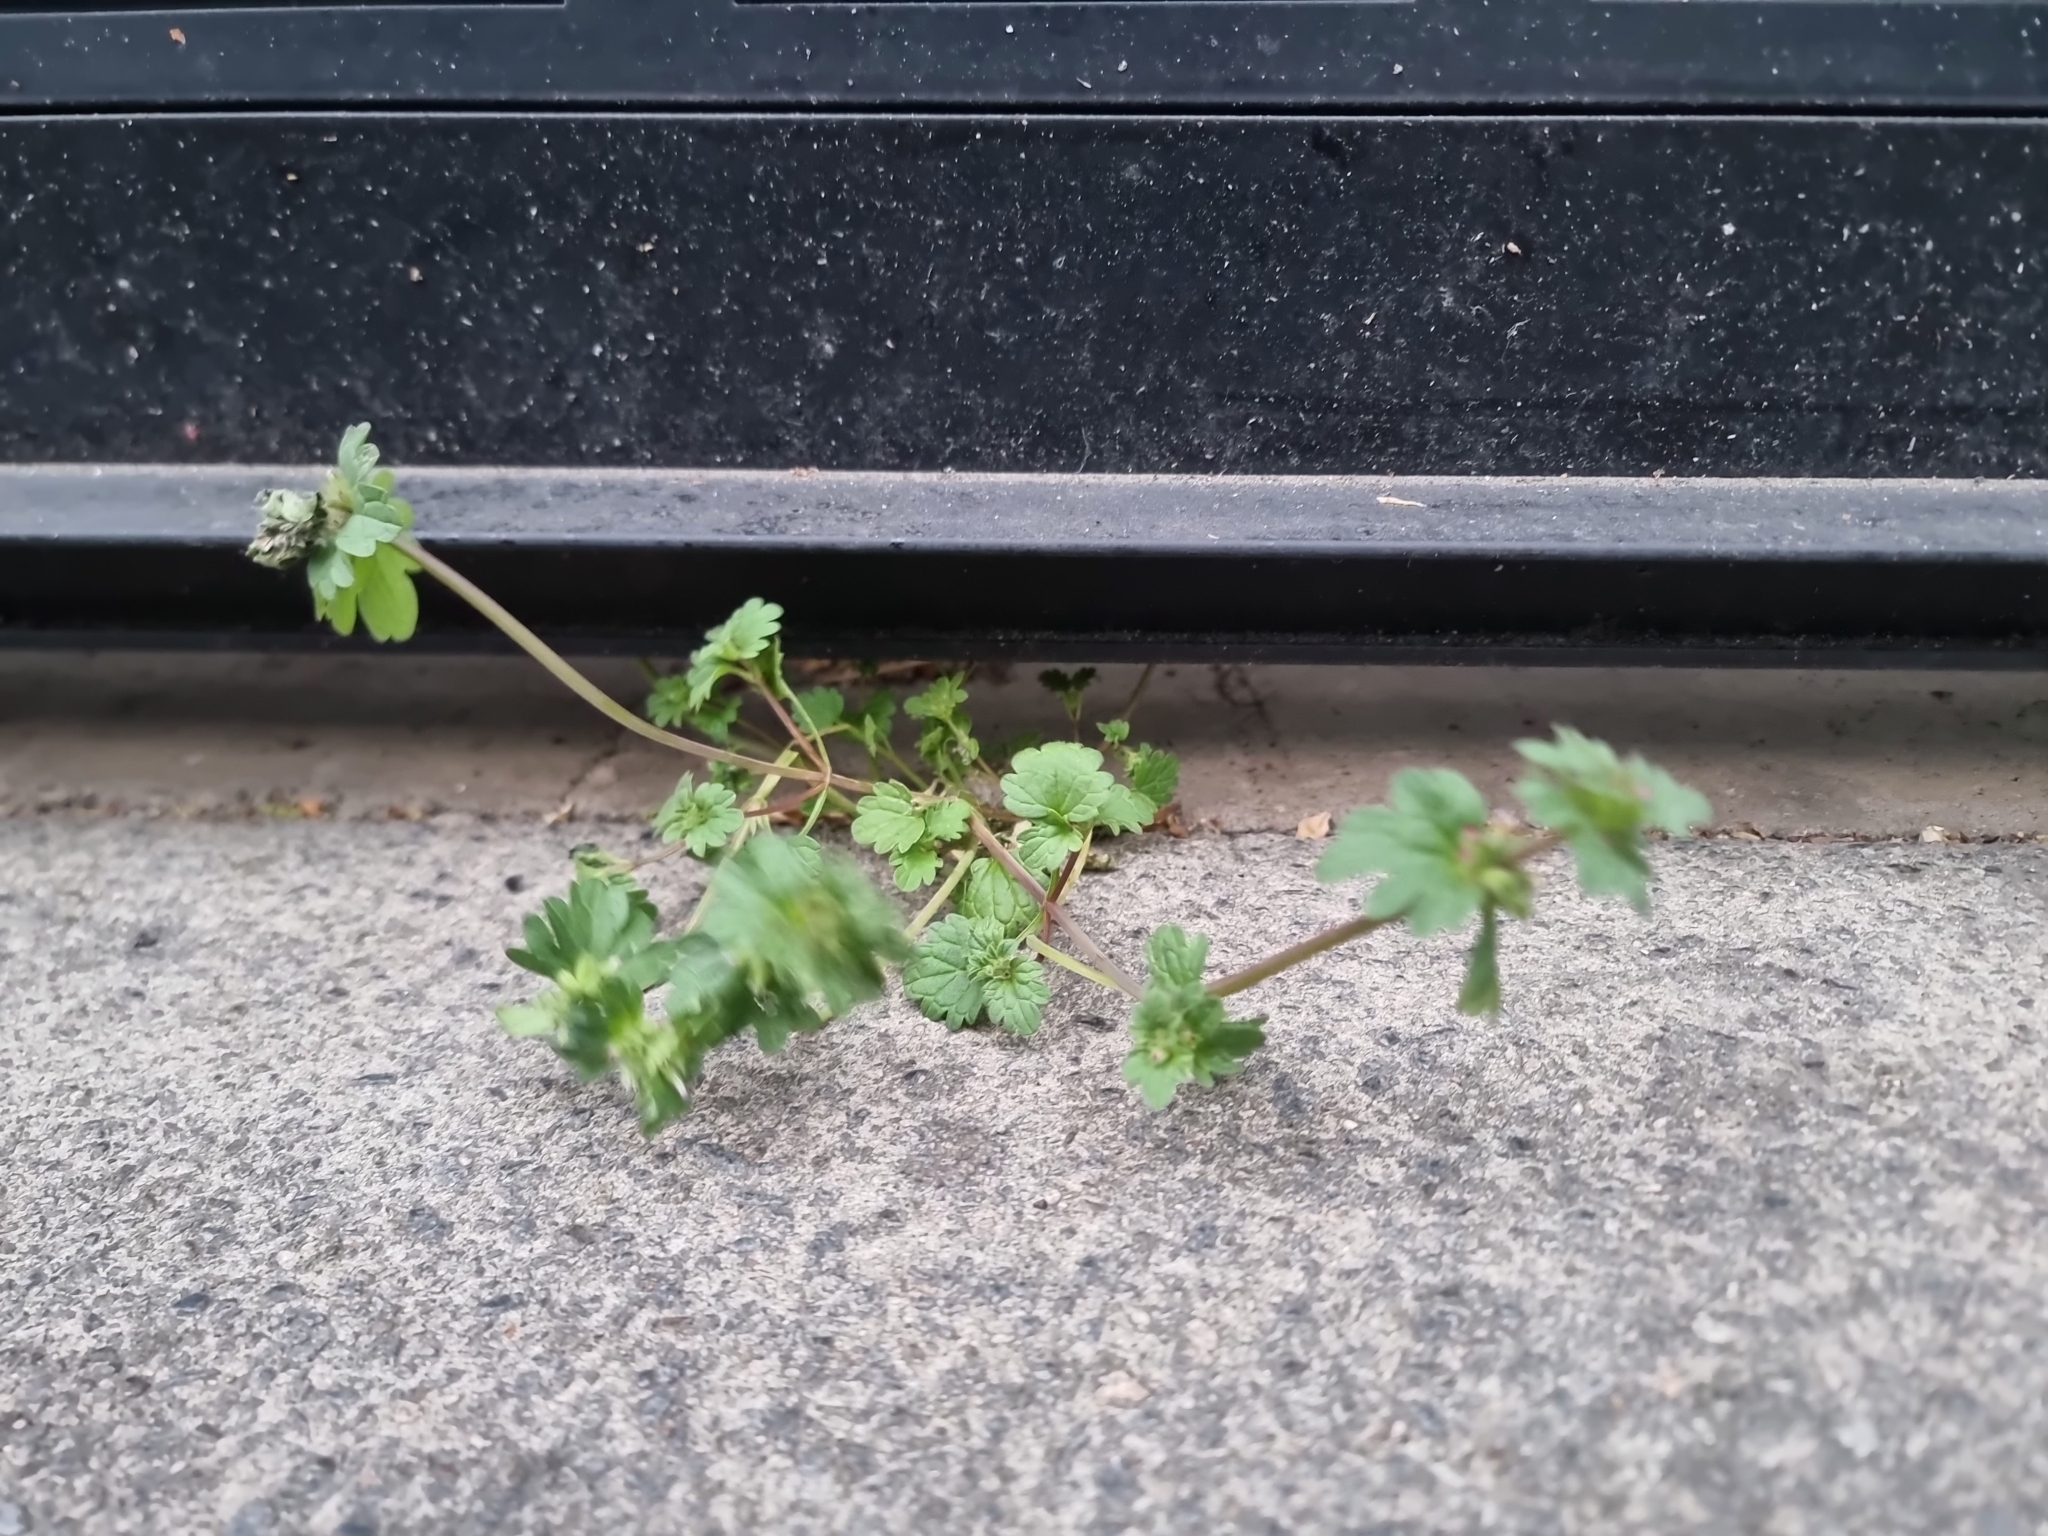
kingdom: Plantae
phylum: Tracheophyta
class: Magnoliopsida
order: Lamiales
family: Lamiaceae
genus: Lamium
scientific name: Lamium amplexicaule
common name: Henbit dead-nettle
